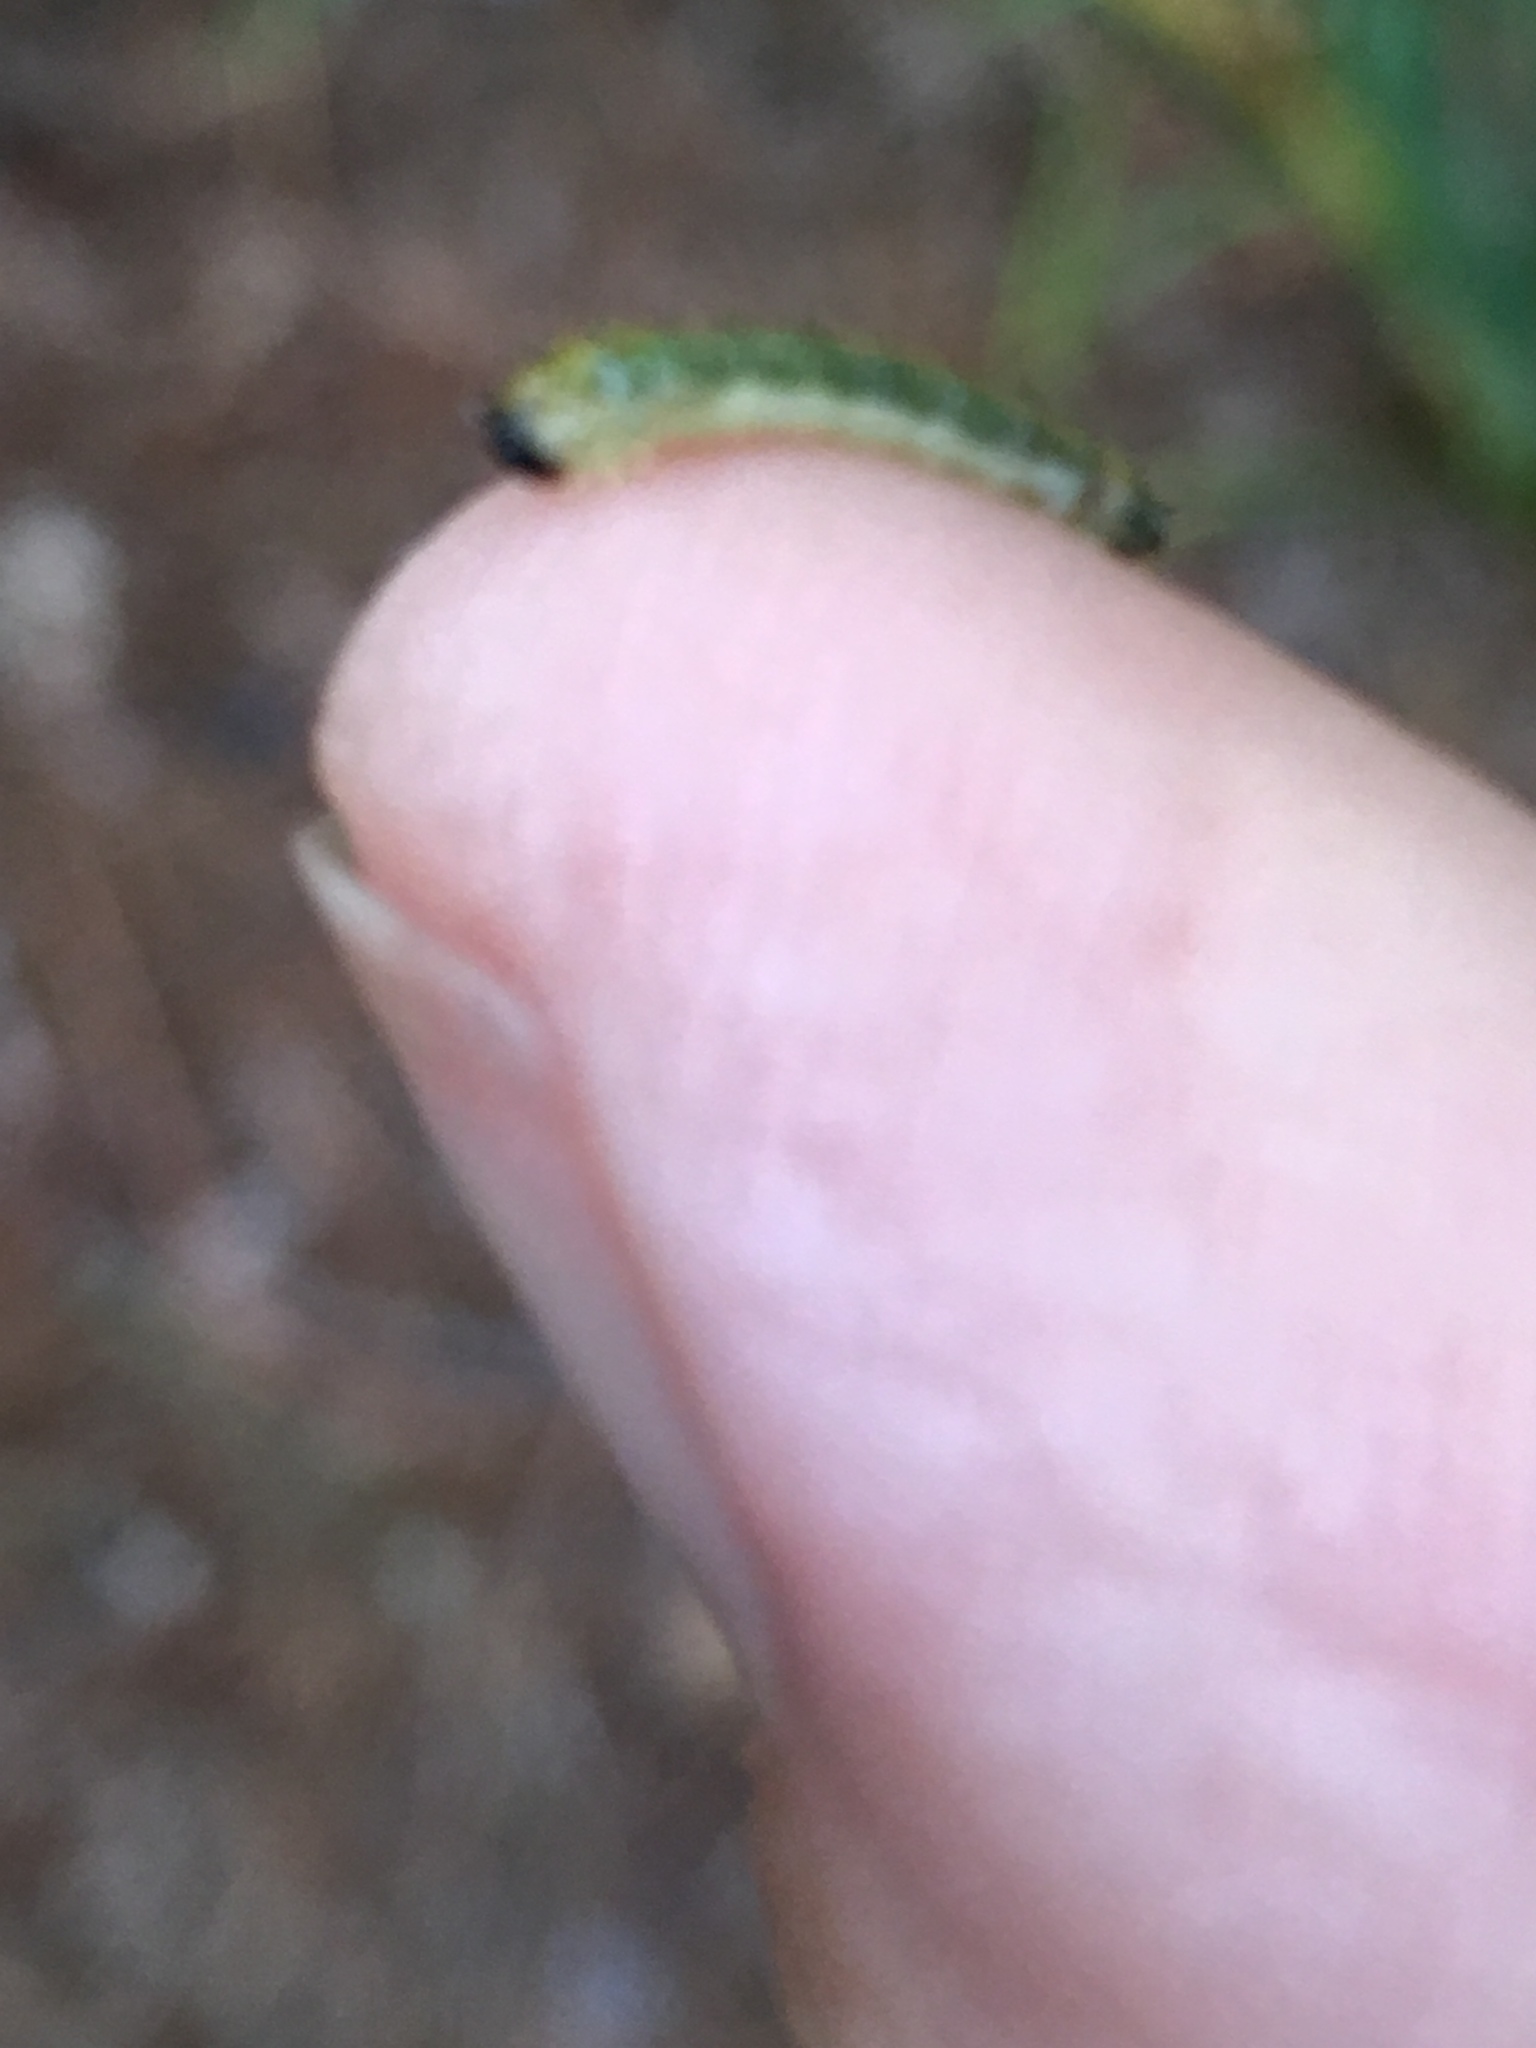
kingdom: Animalia
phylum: Arthropoda
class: Insecta
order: Hymenoptera
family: Argidae
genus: Atomacera
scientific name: Atomacera
